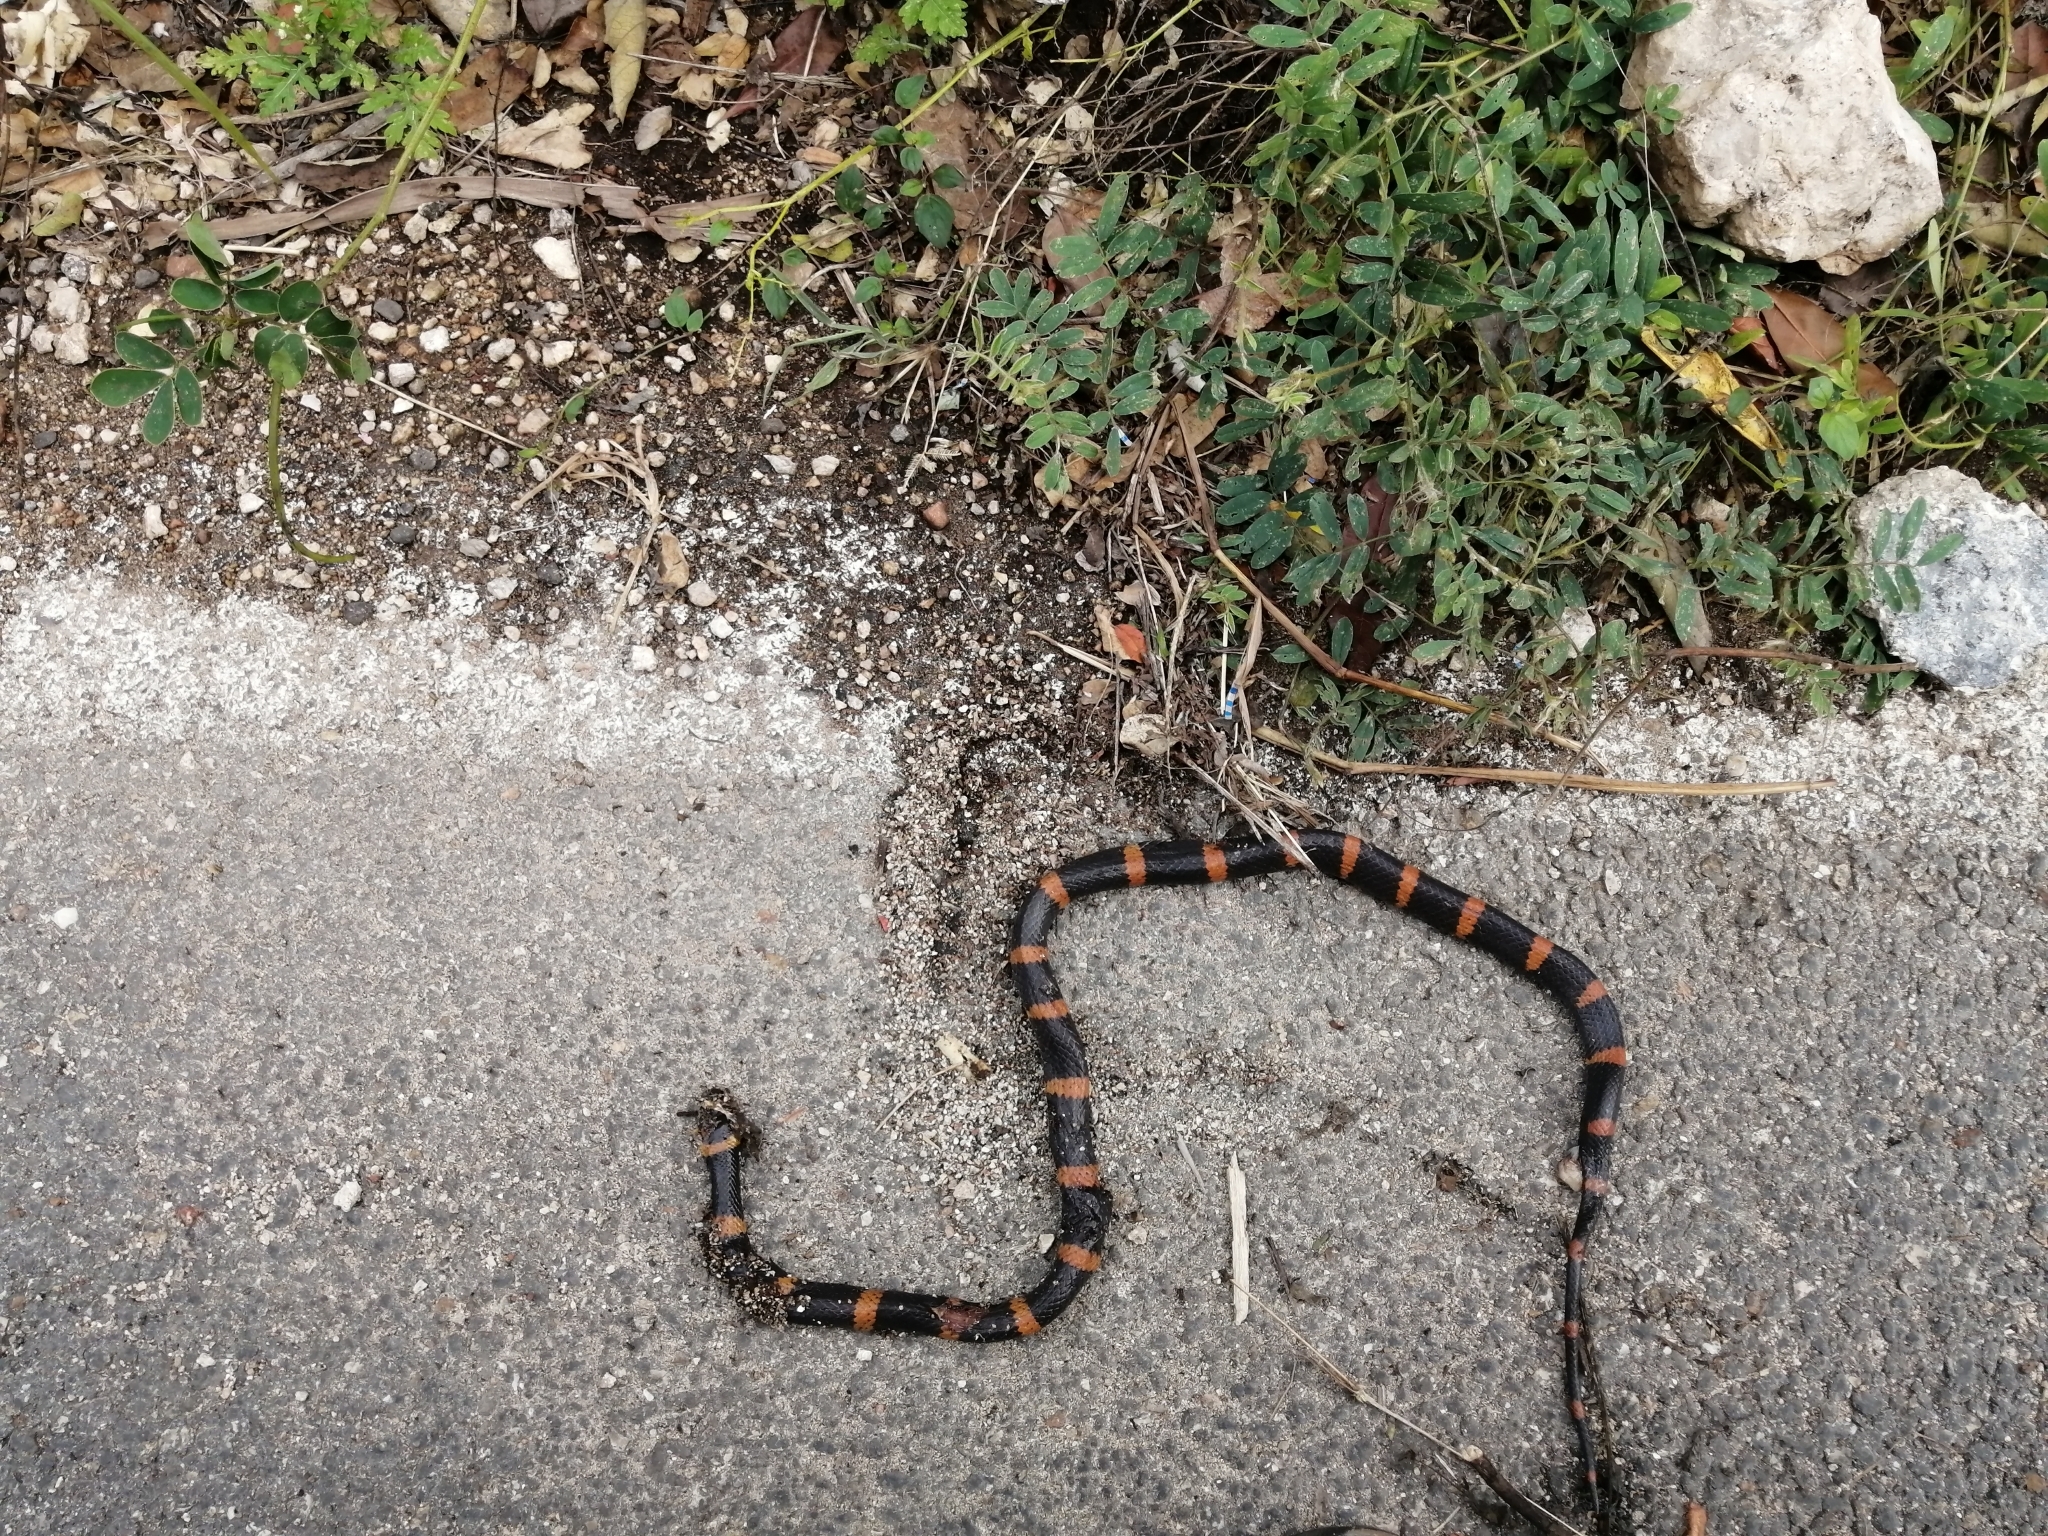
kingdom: Animalia
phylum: Chordata
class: Squamata
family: Colubridae
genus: Geophis
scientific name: Geophis
